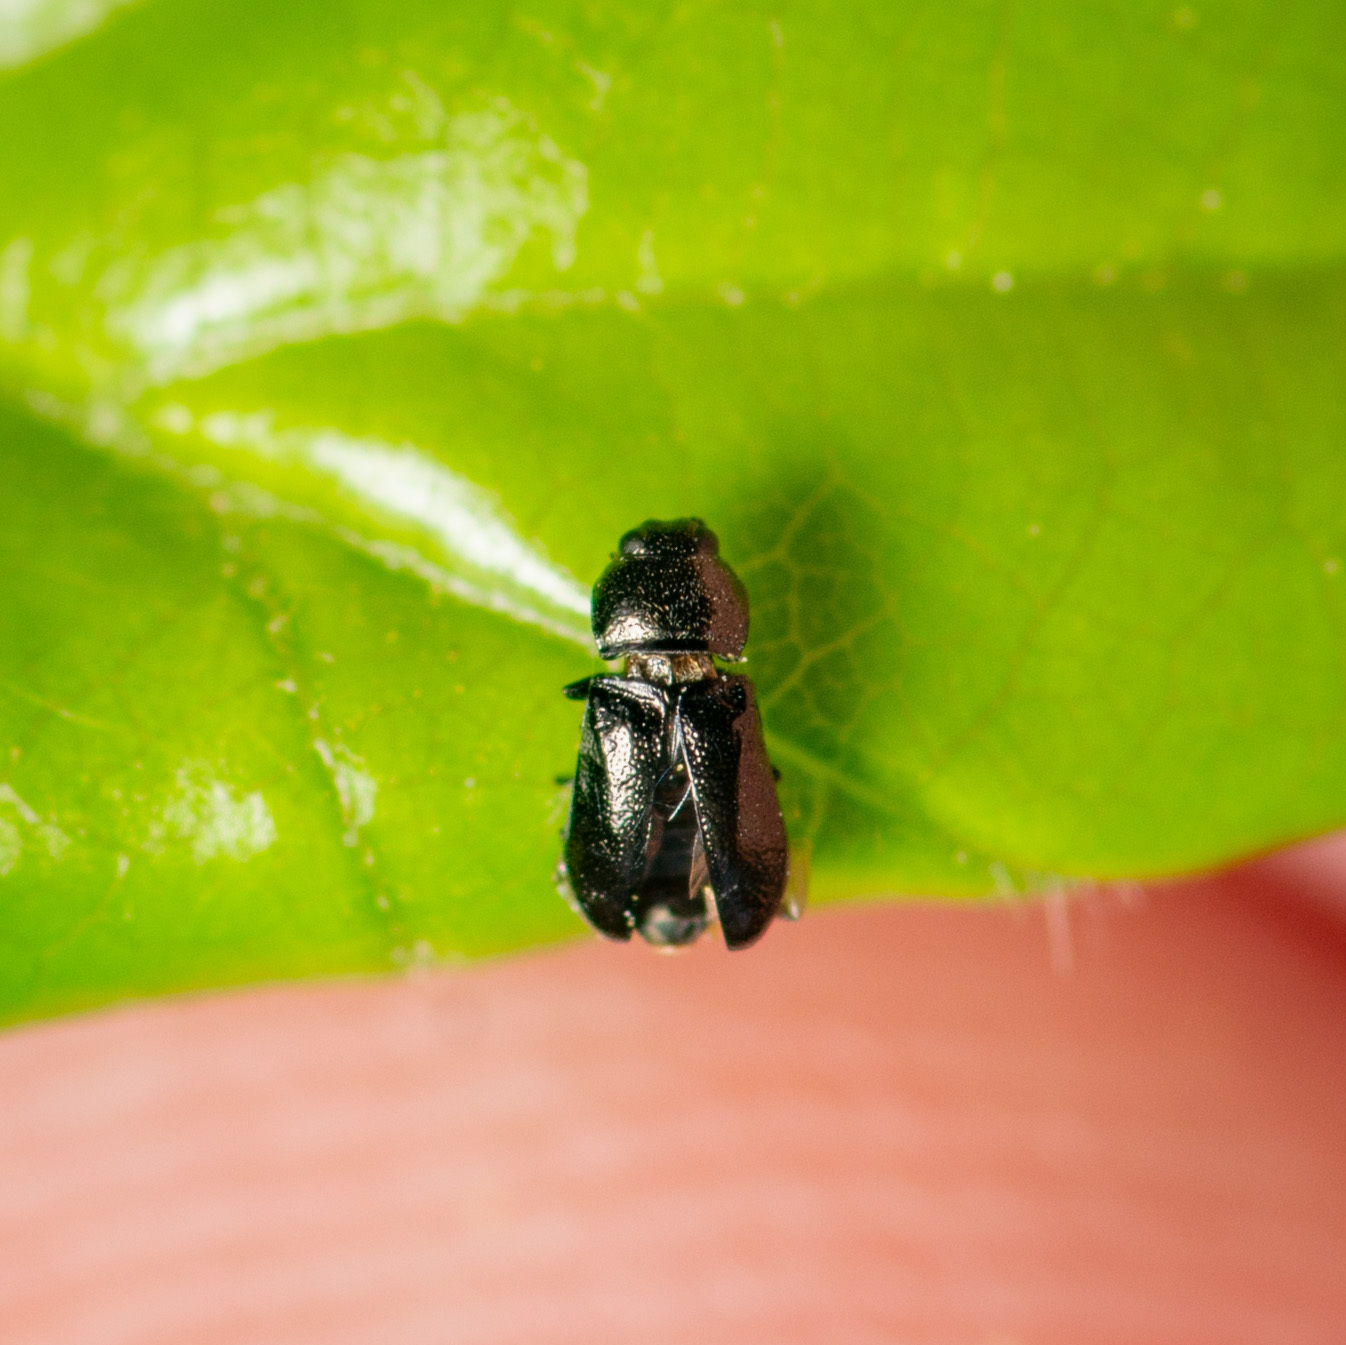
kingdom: Animalia
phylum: Arthropoda
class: Insecta
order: Coleoptera
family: Buprestidae
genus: Mastogenius
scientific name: Mastogenius crenulatus
